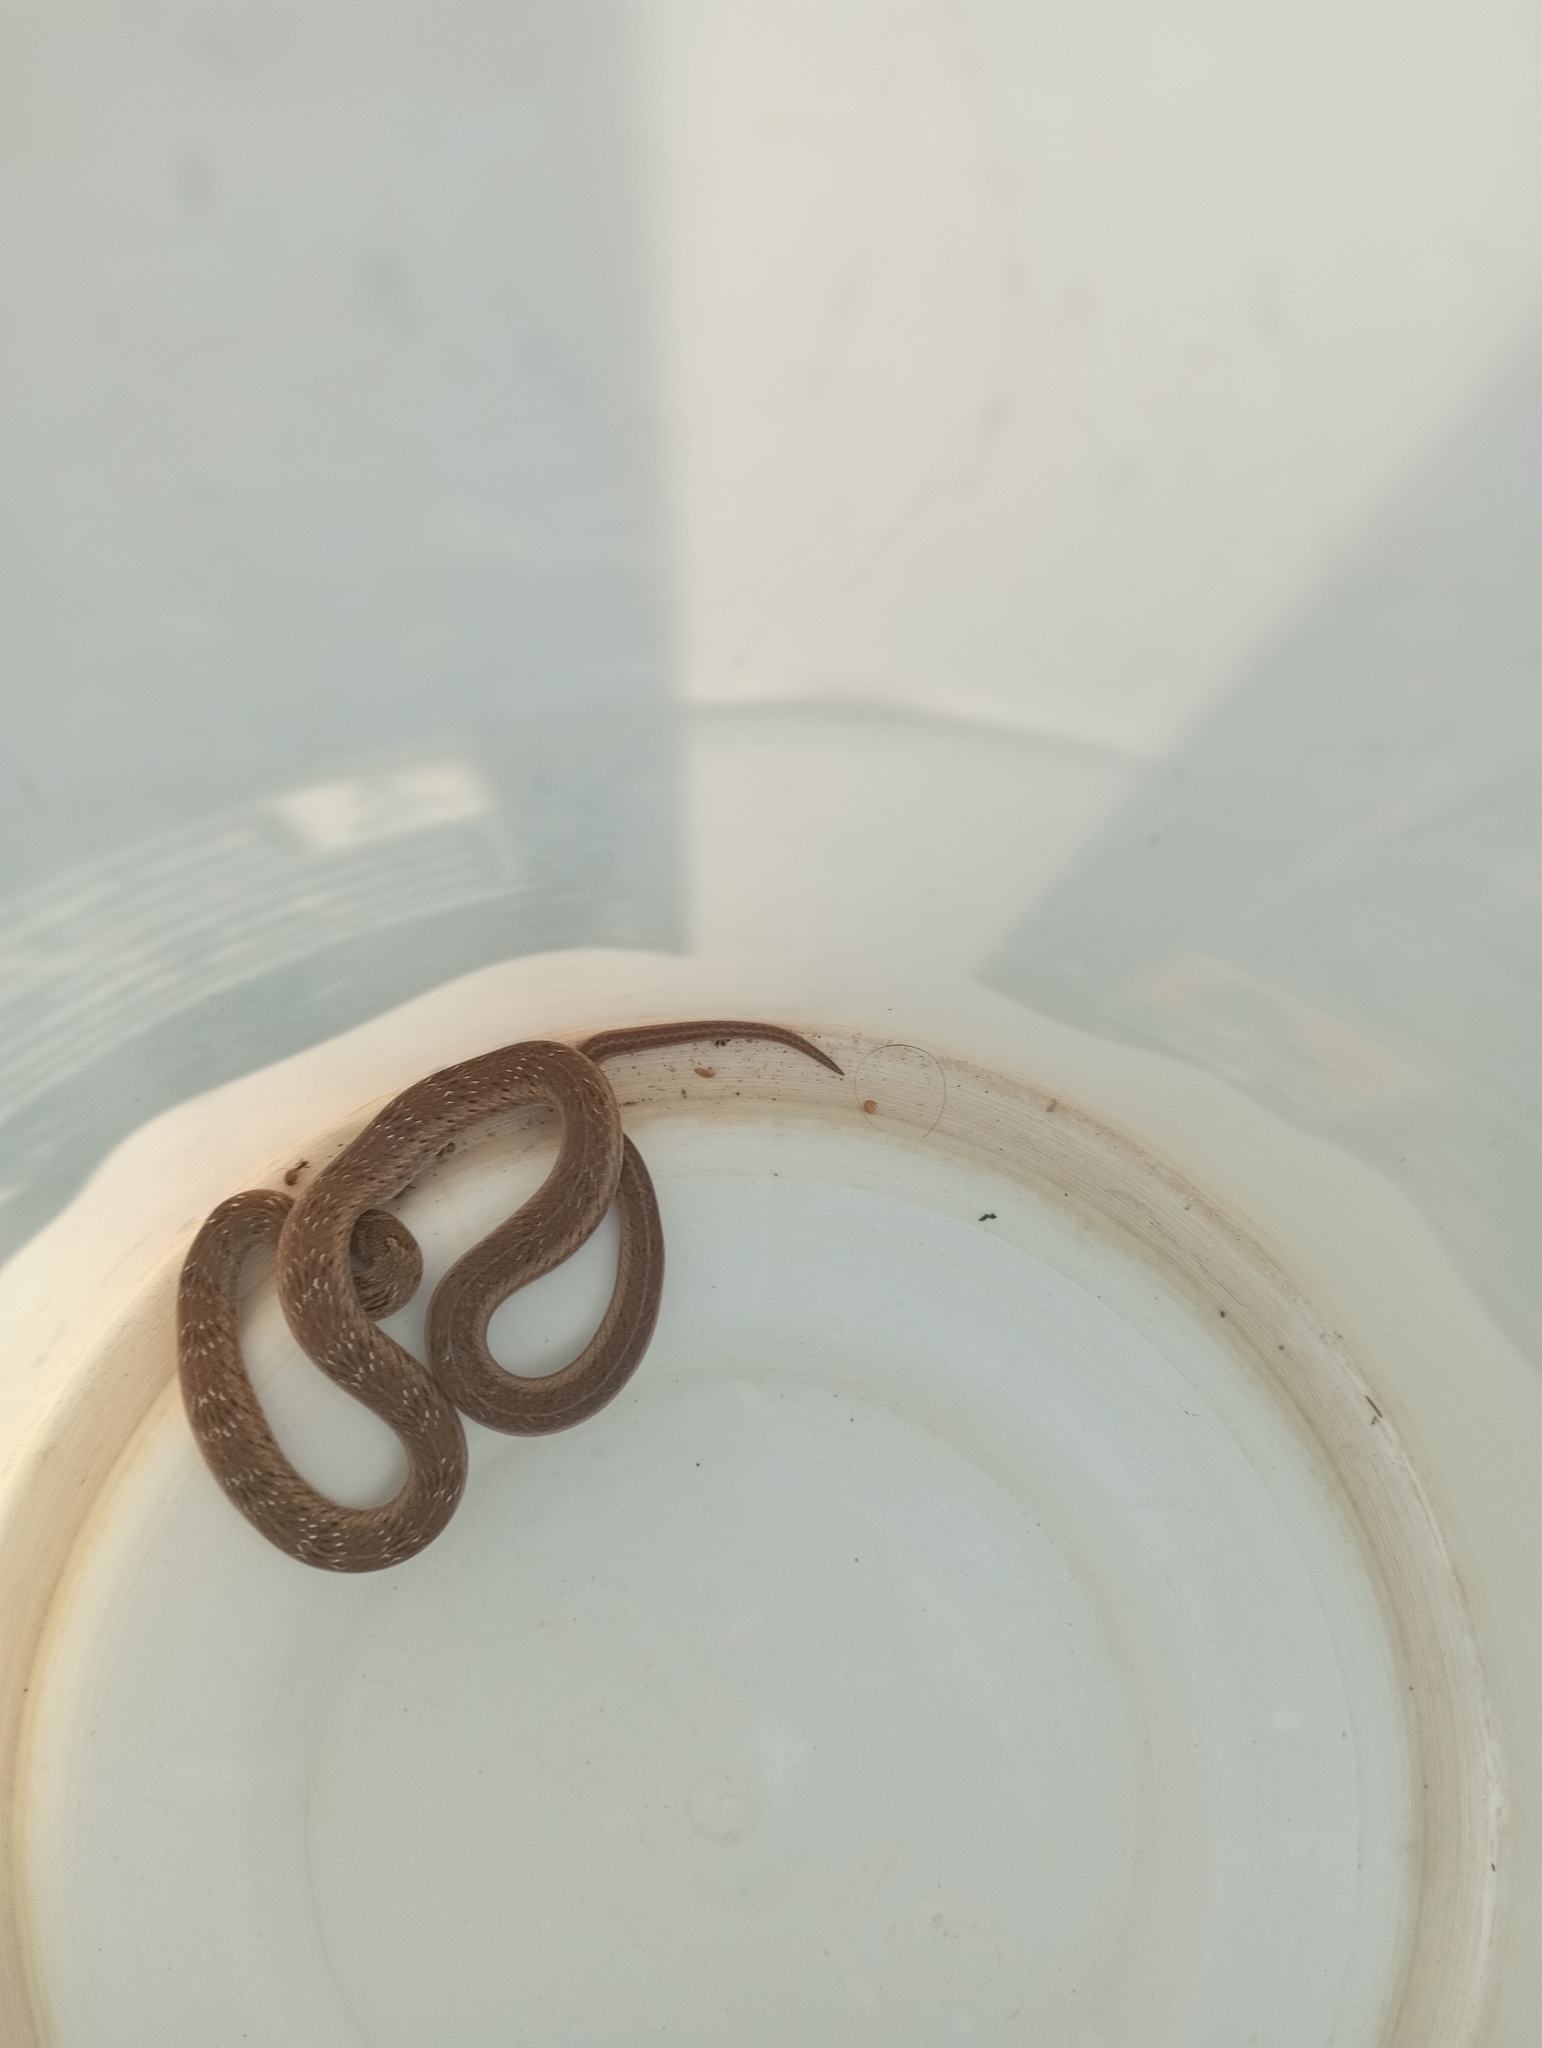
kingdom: Animalia
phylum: Chordata
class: Squamata
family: Colubridae
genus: Oligodon
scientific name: Oligodon taeniolatus
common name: Loos snake
